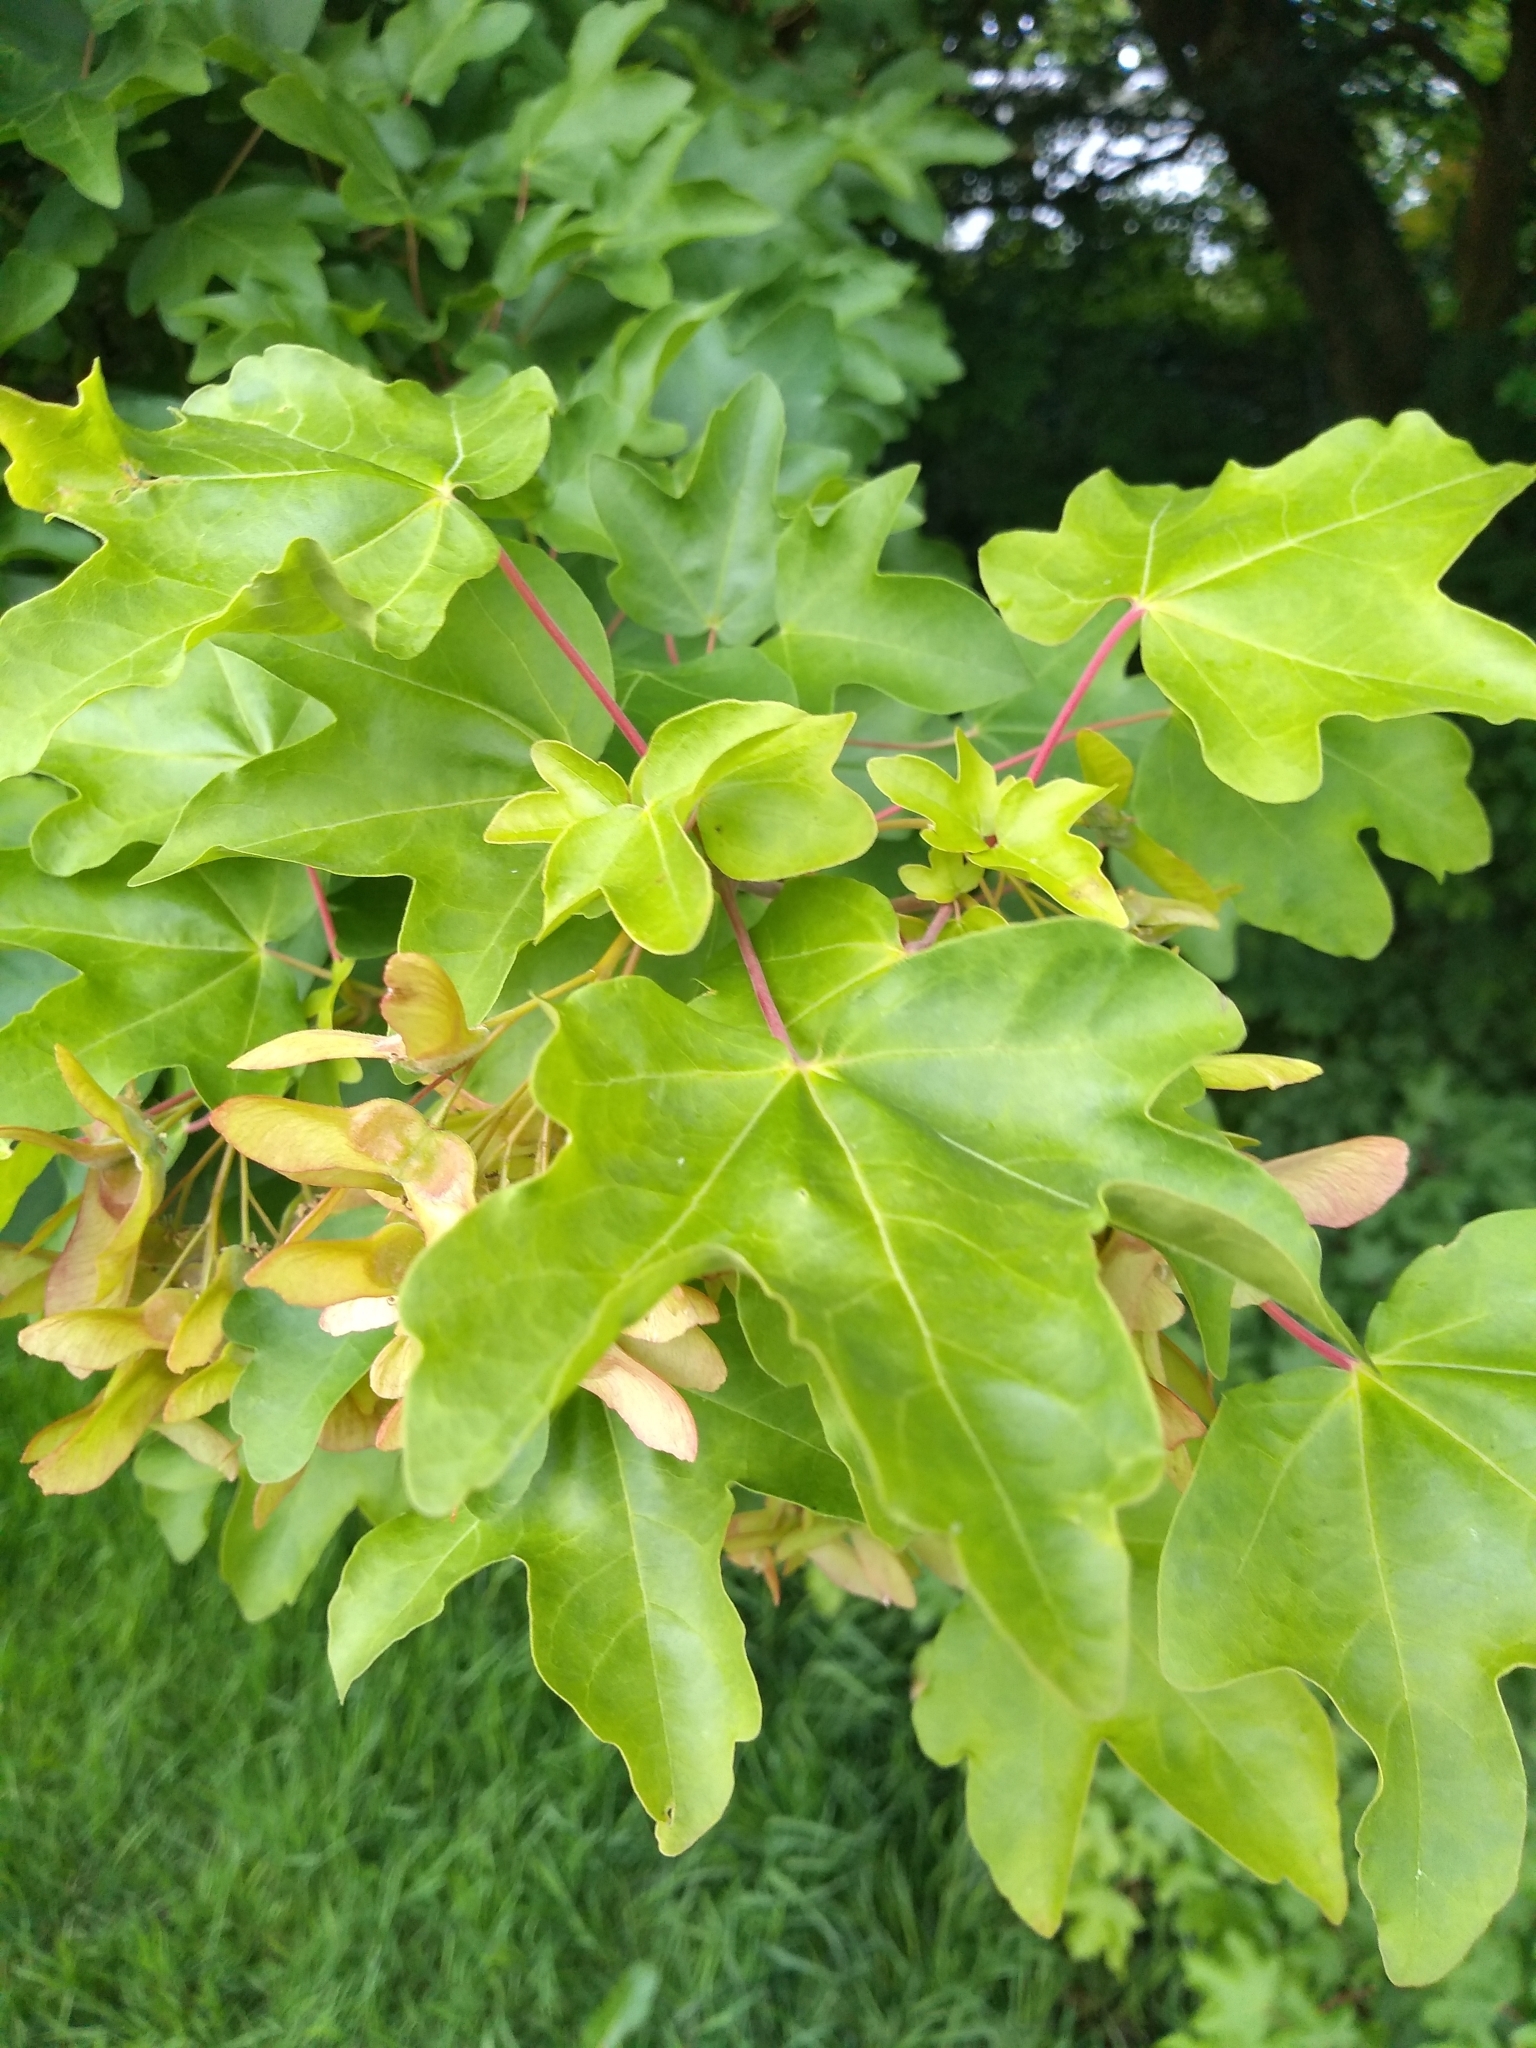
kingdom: Plantae
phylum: Tracheophyta
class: Magnoliopsida
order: Sapindales
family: Sapindaceae
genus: Acer
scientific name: Acer campestre
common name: Field maple
